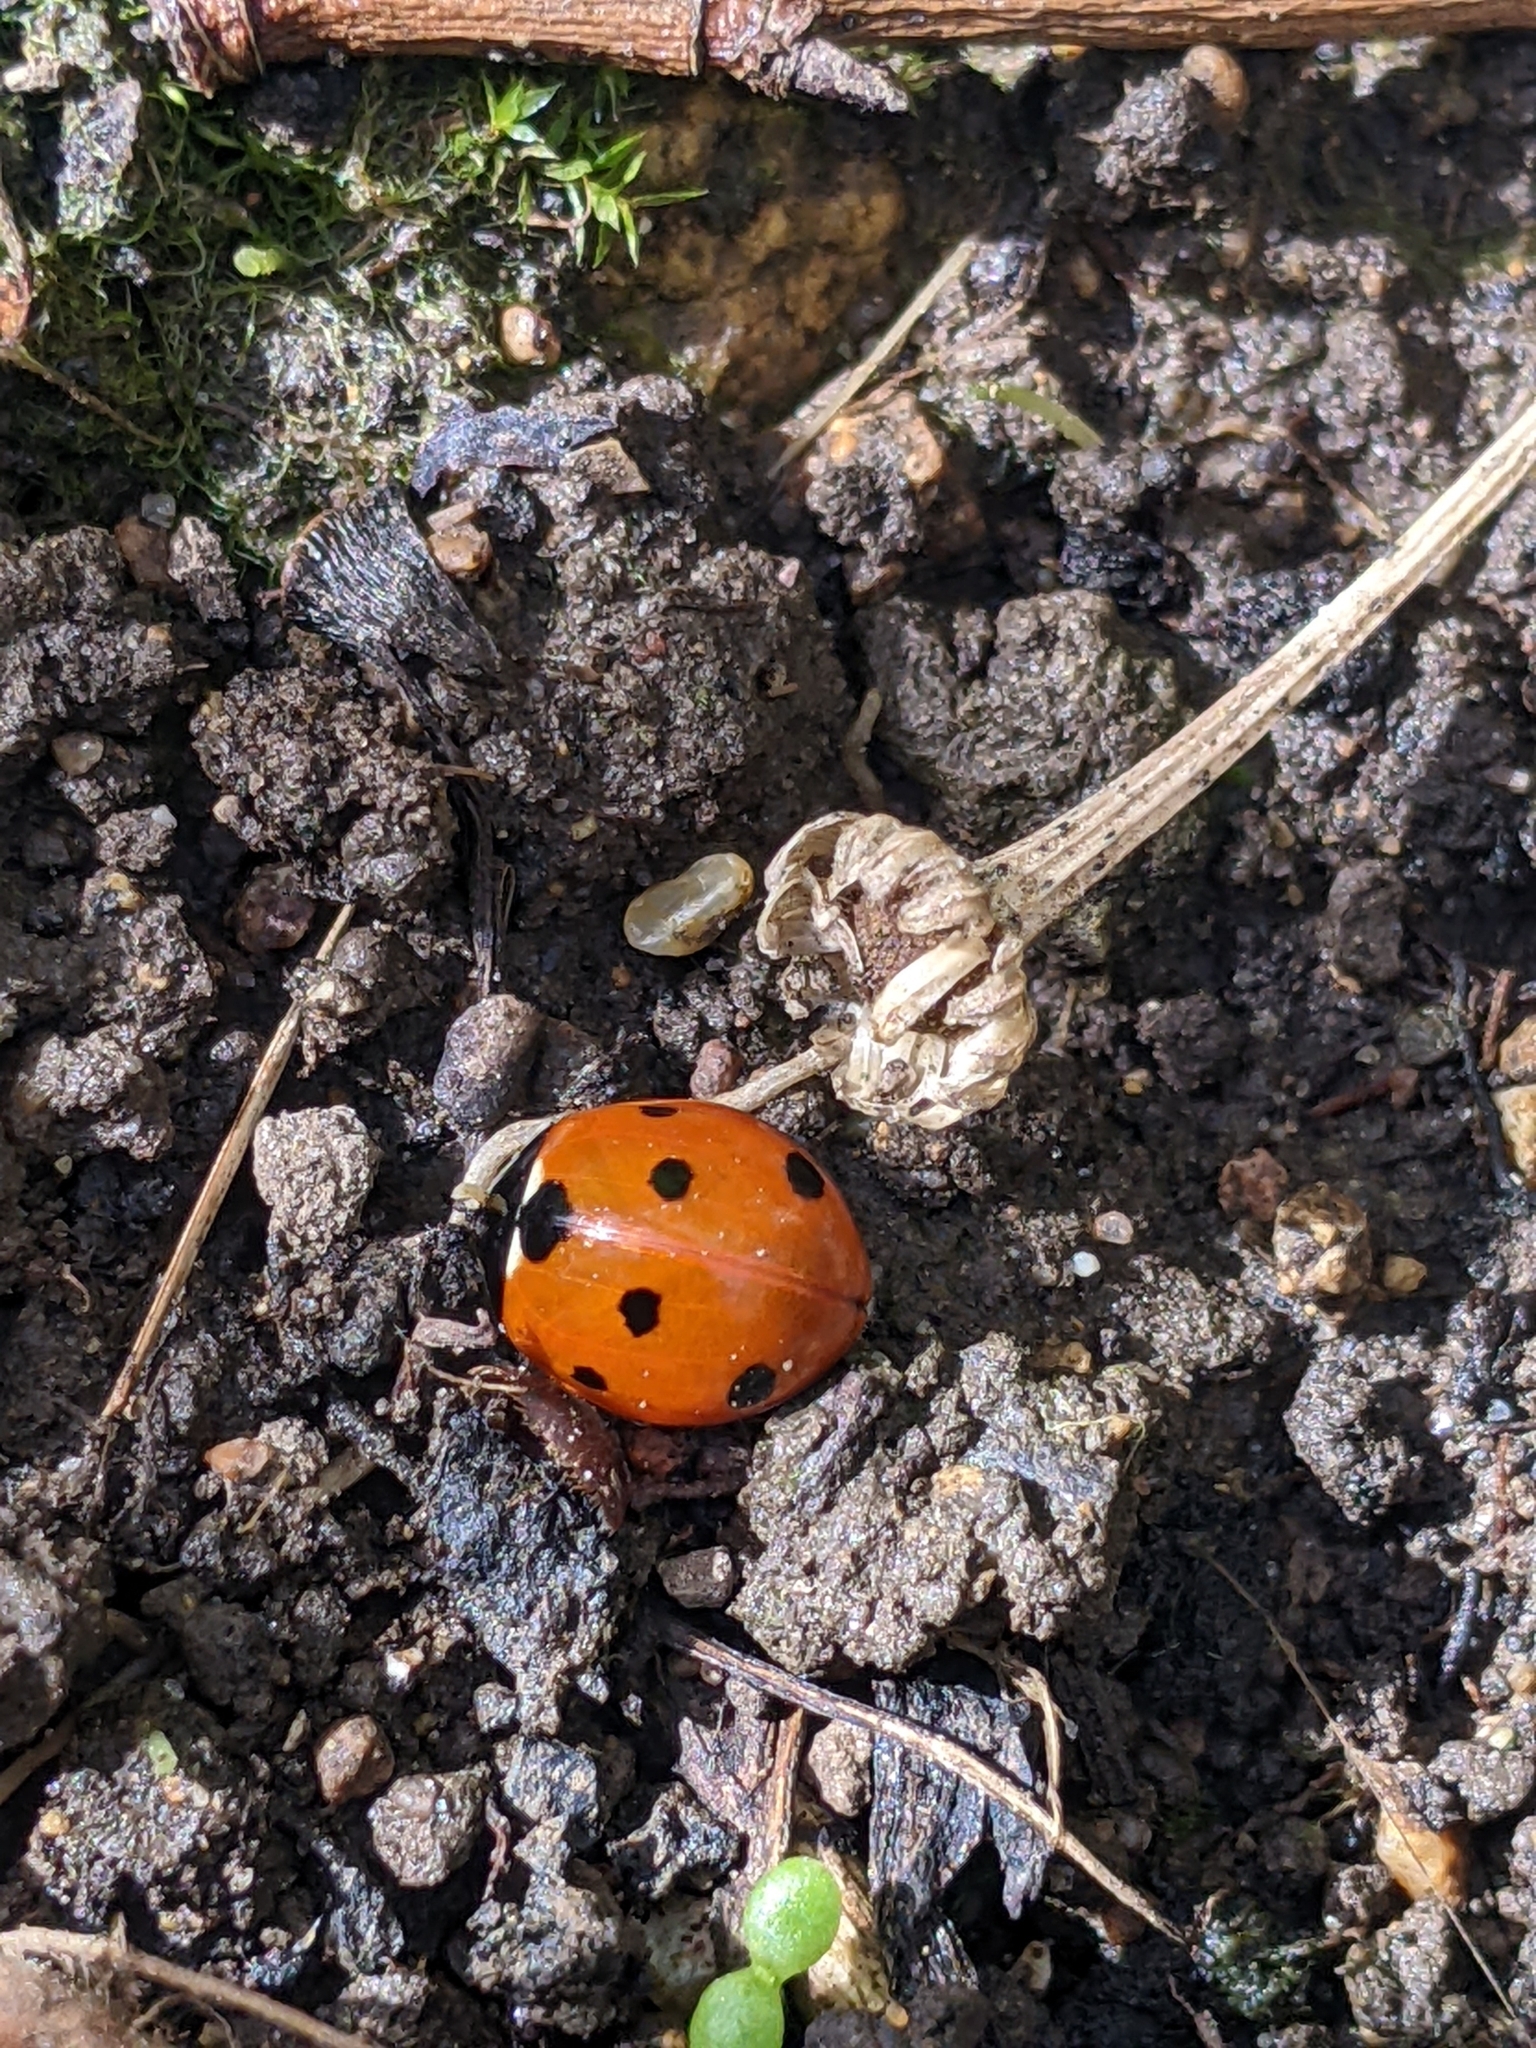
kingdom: Animalia
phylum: Arthropoda
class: Insecta
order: Coleoptera
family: Coccinellidae
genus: Coccinella
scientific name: Coccinella septempunctata
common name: Sevenspotted lady beetle
